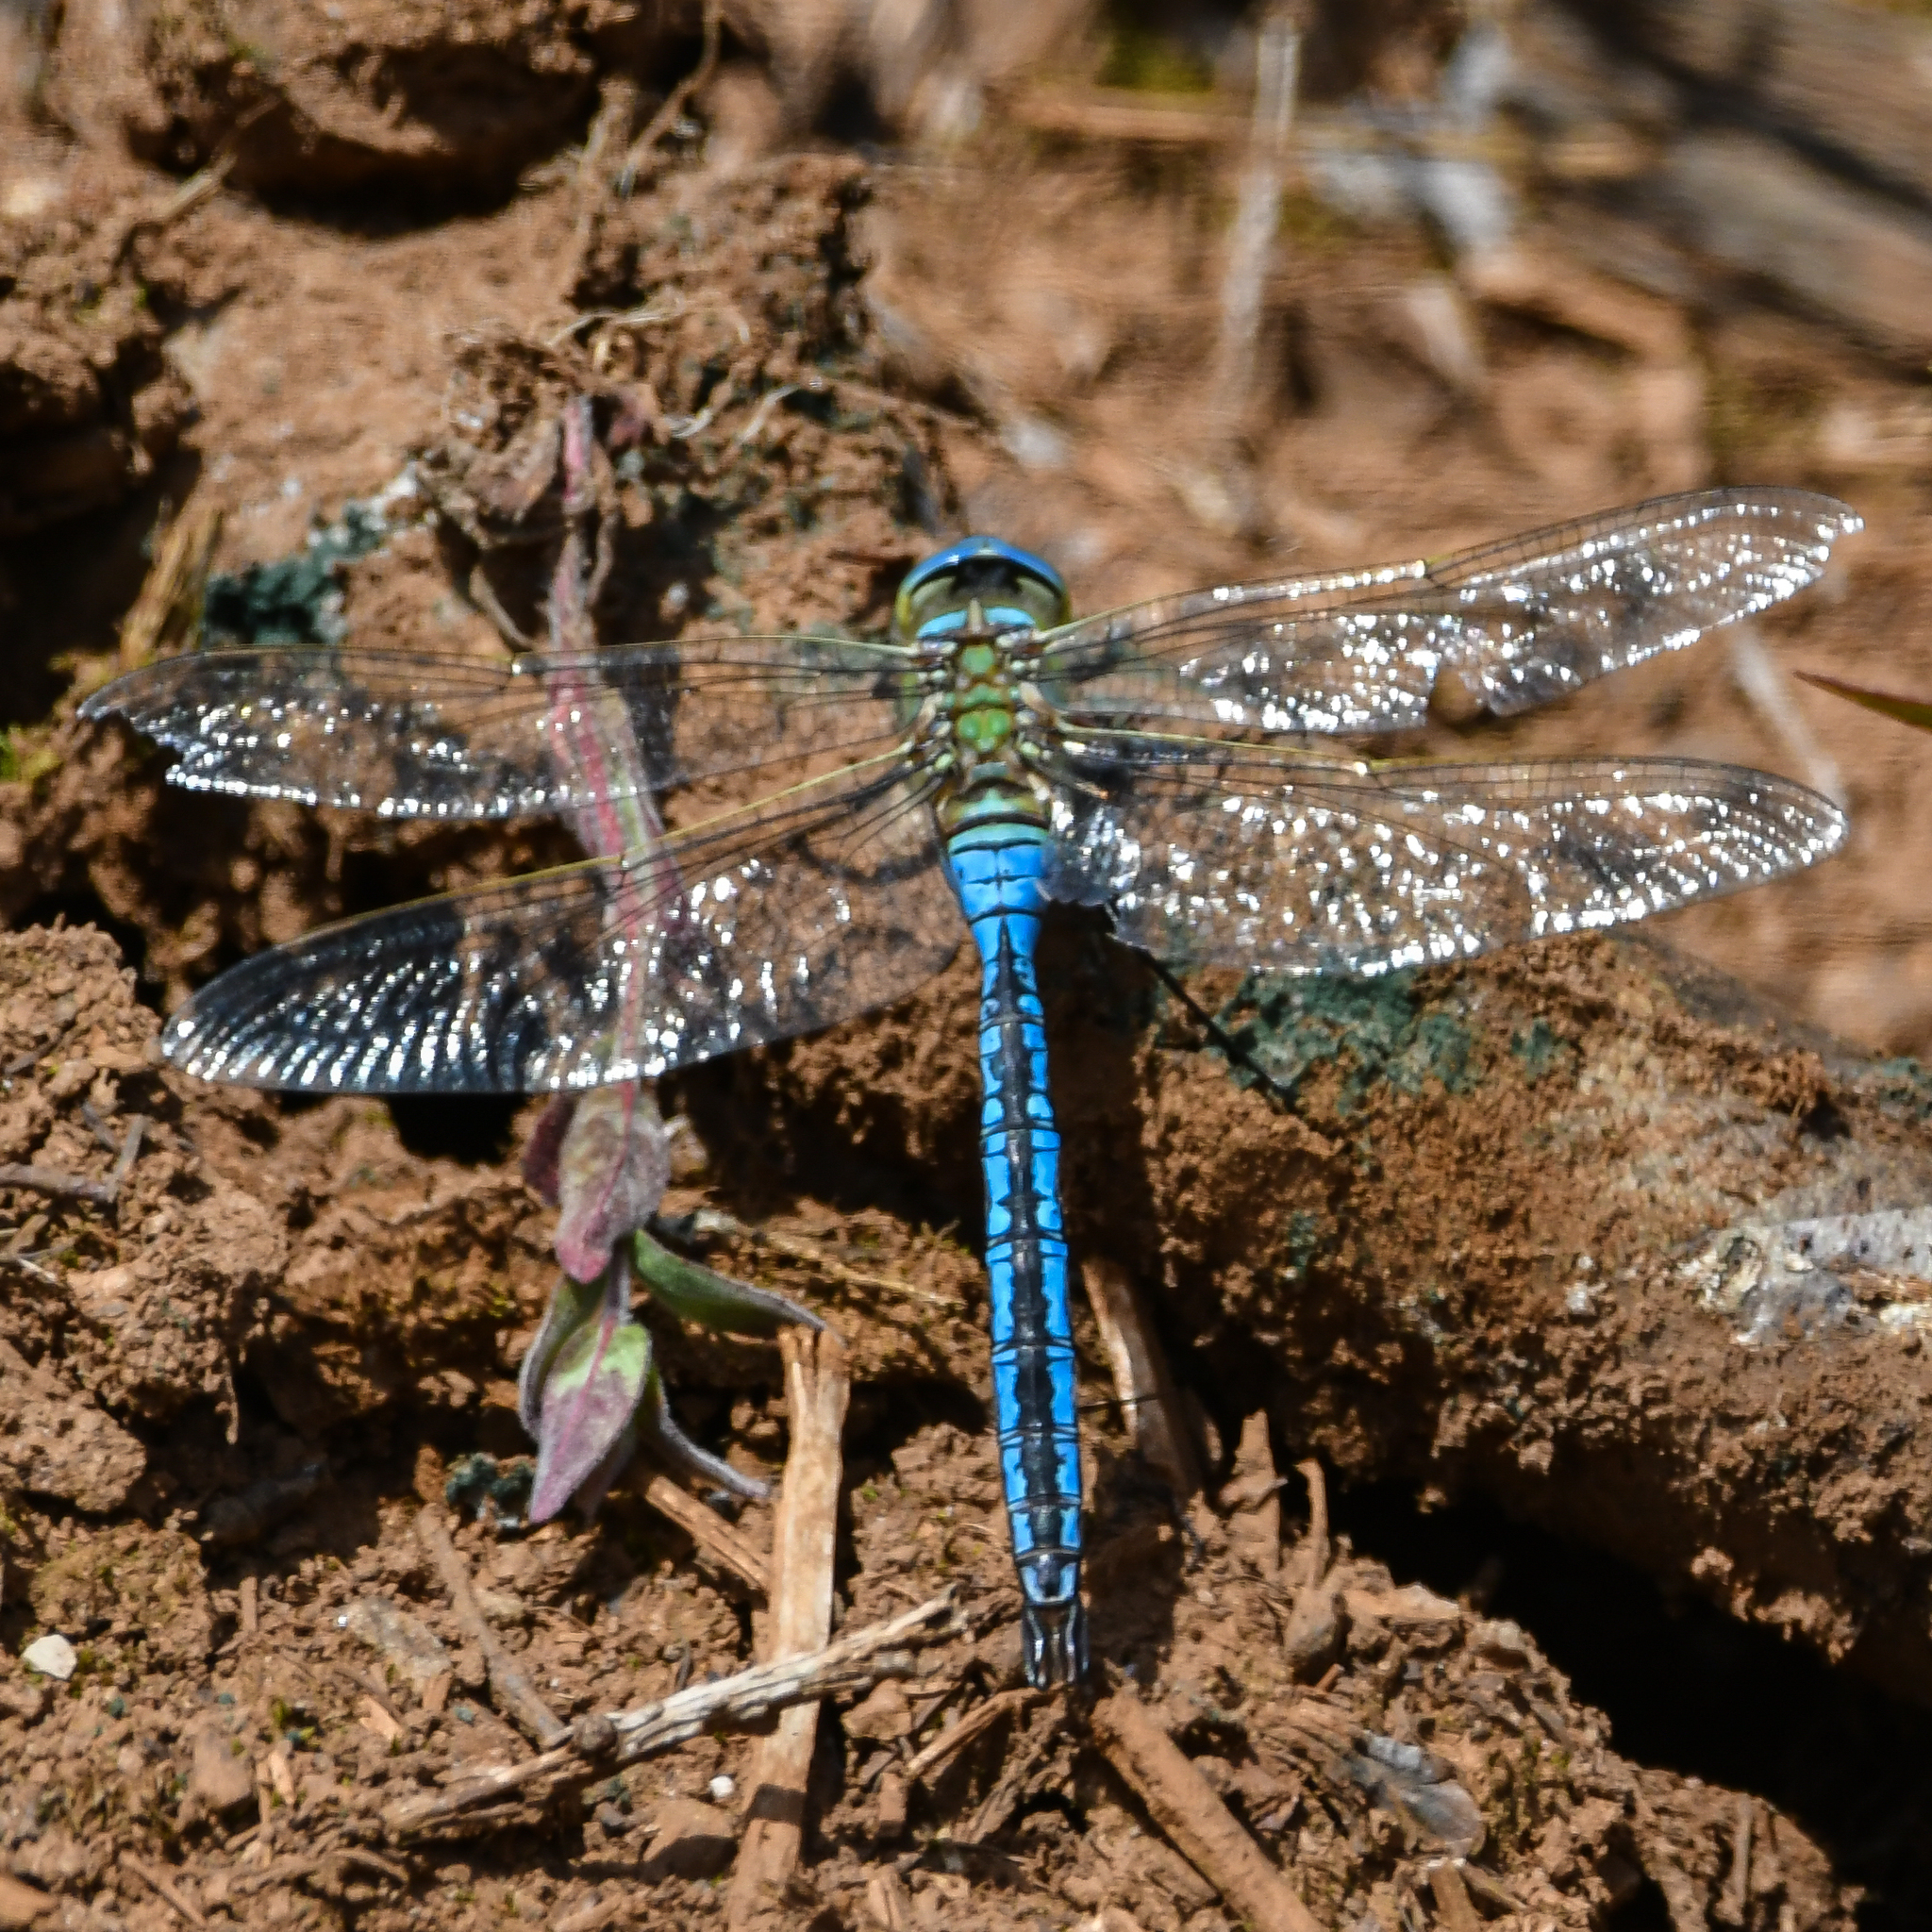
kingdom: Animalia
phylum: Arthropoda
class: Insecta
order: Odonata
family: Aeshnidae
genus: Anax
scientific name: Anax imperator
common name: Emperor dragonfly
